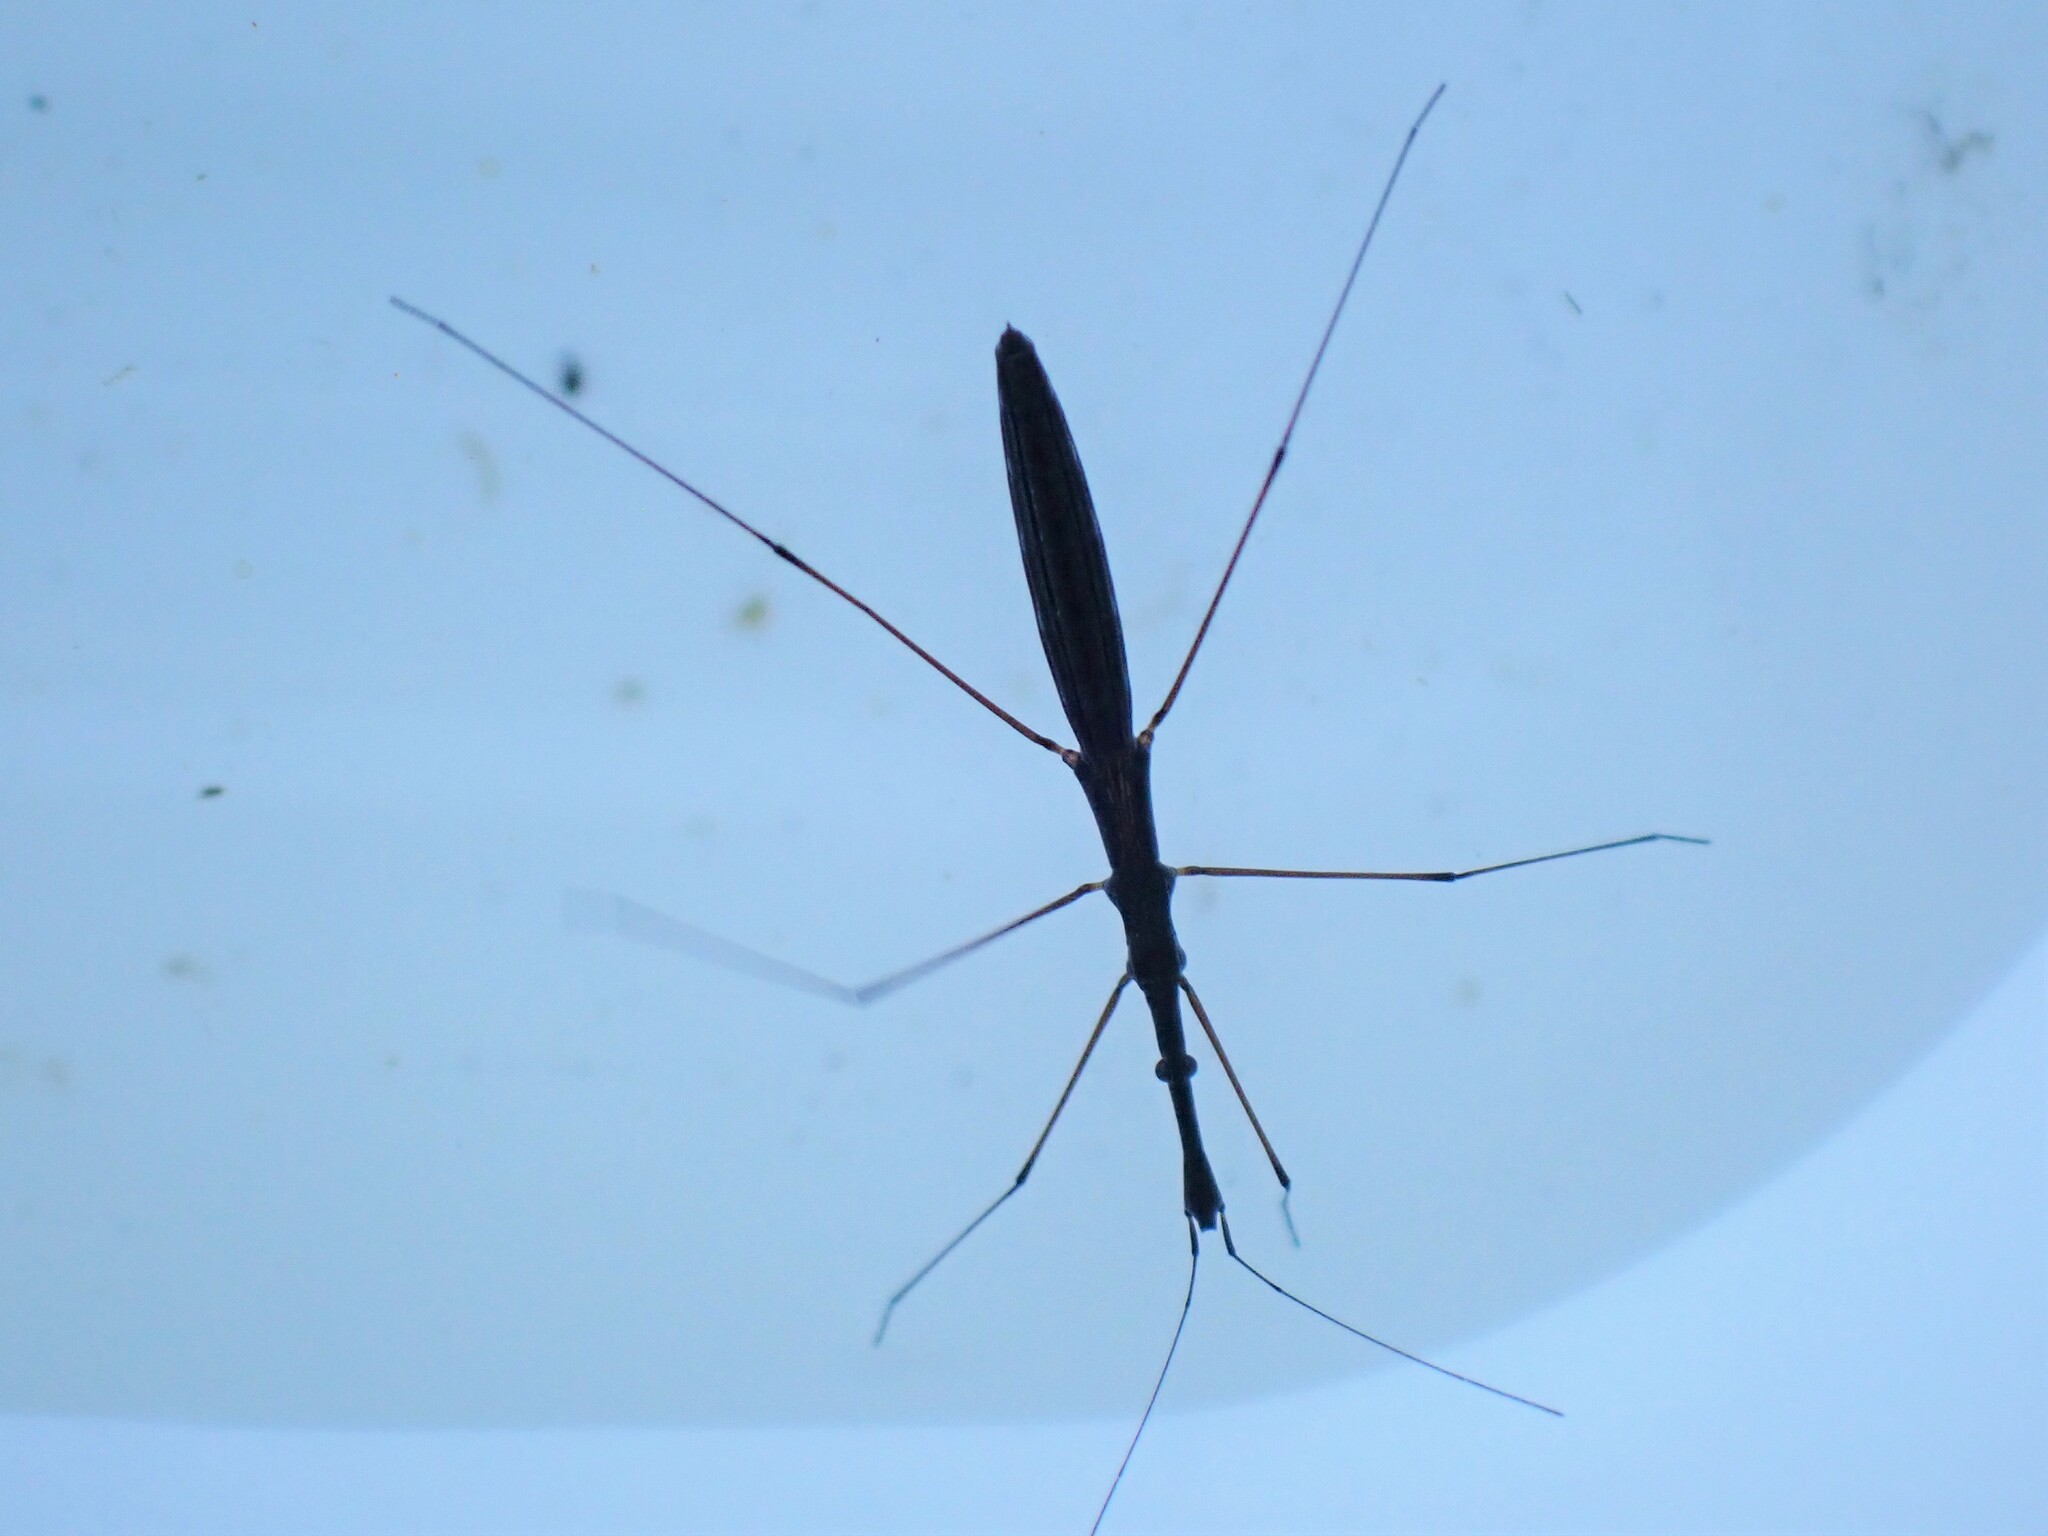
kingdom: Animalia
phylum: Arthropoda
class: Insecta
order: Hemiptera
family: Hydrometridae
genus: Hydrometra
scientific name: Hydrometra stagnorum
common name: Water measurer
